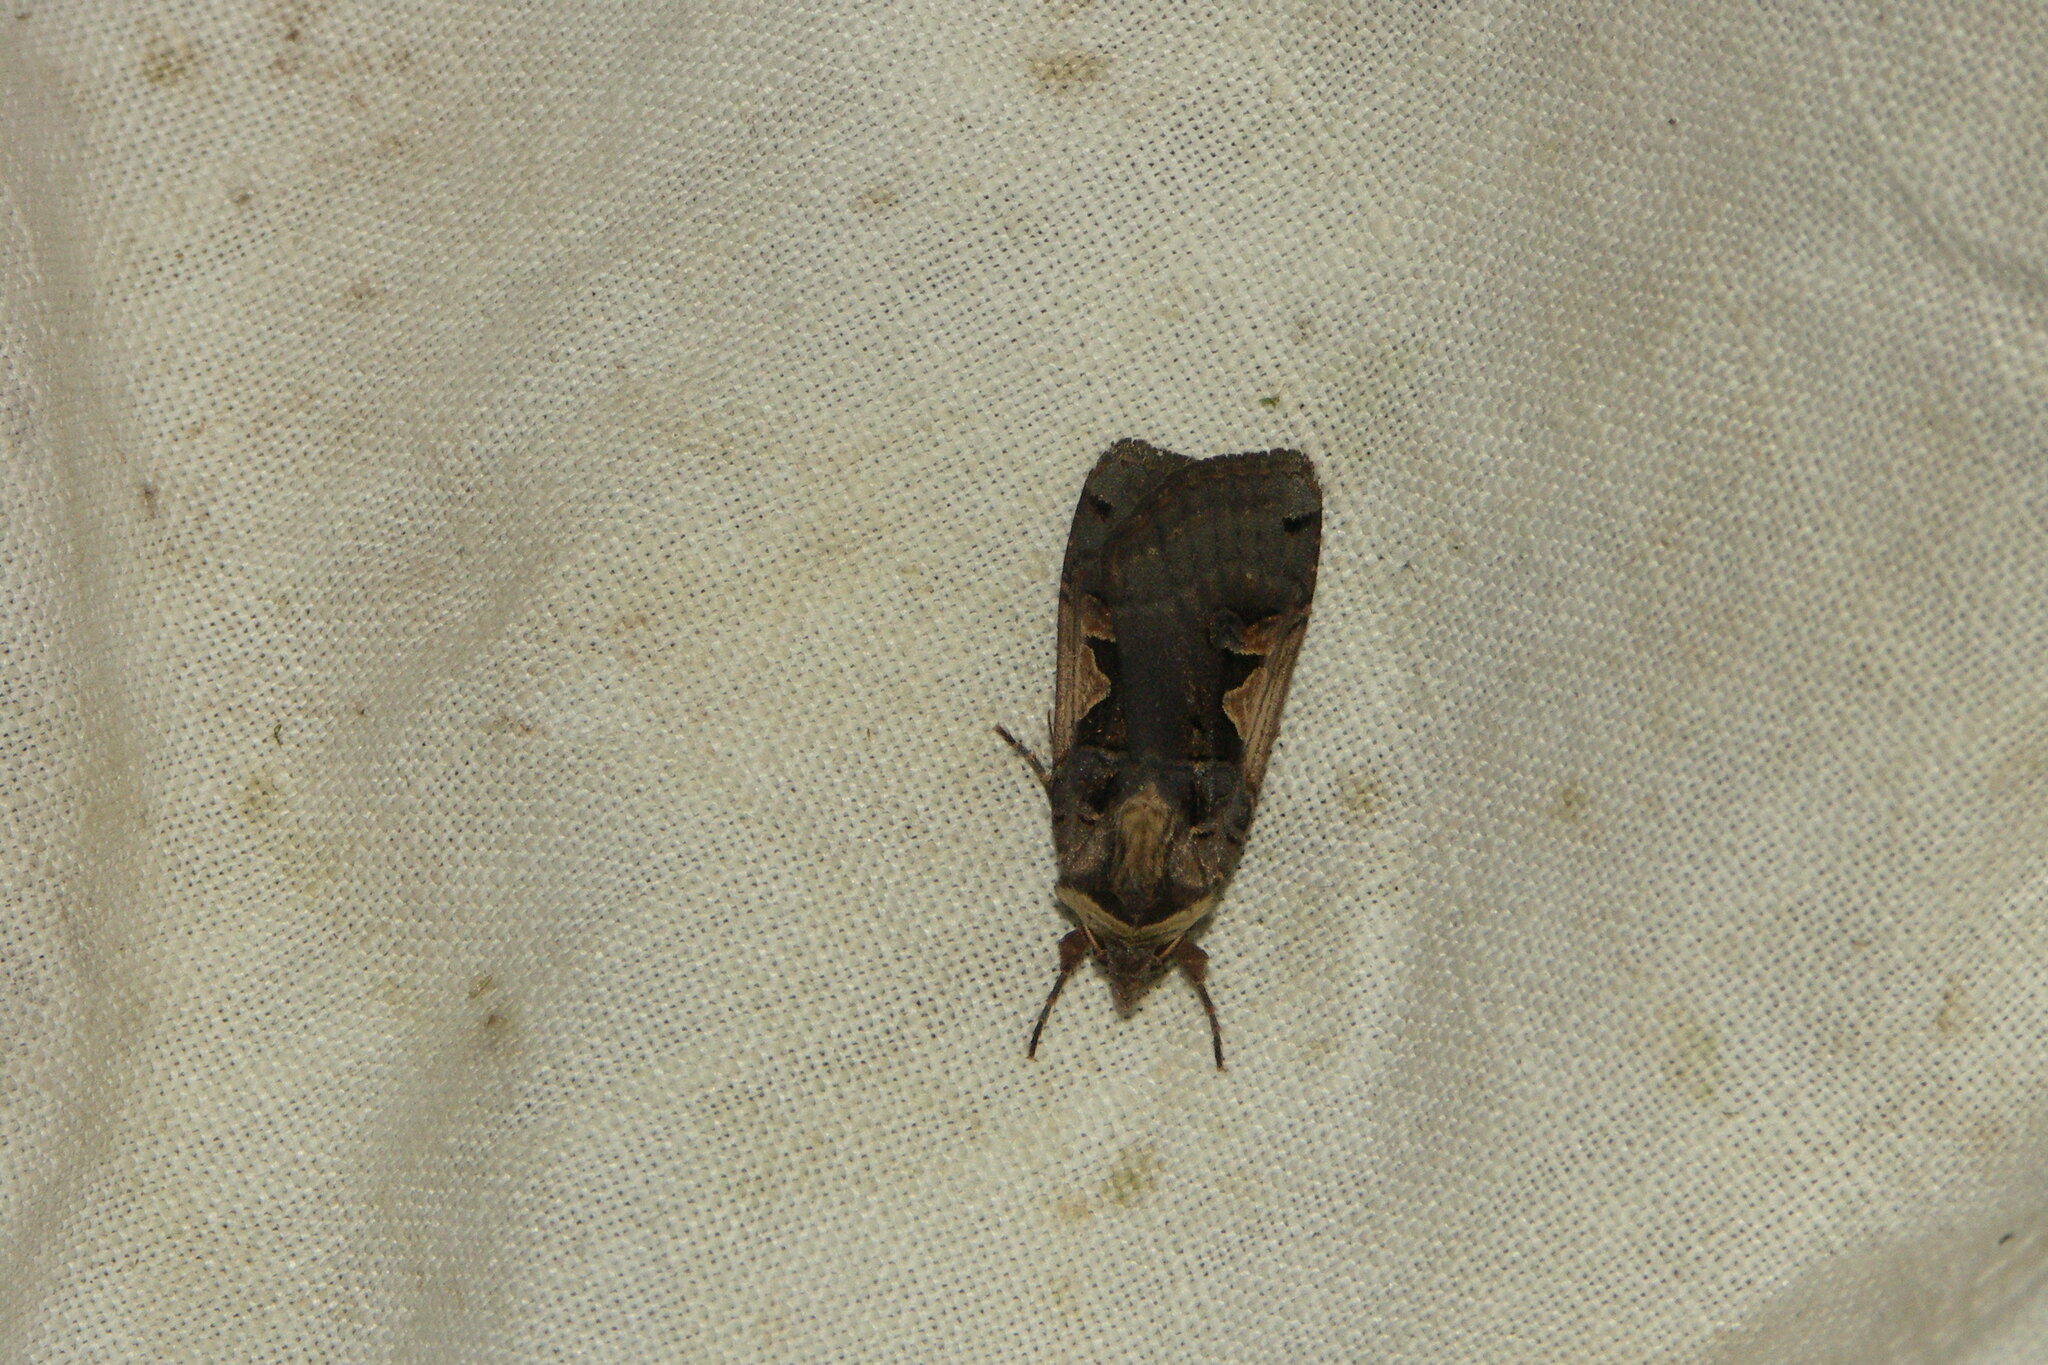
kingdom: Animalia
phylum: Arthropoda
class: Insecta
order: Lepidoptera
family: Noctuidae
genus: Xestia
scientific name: Xestia c-nigrum
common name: Setaceous hebrew character
